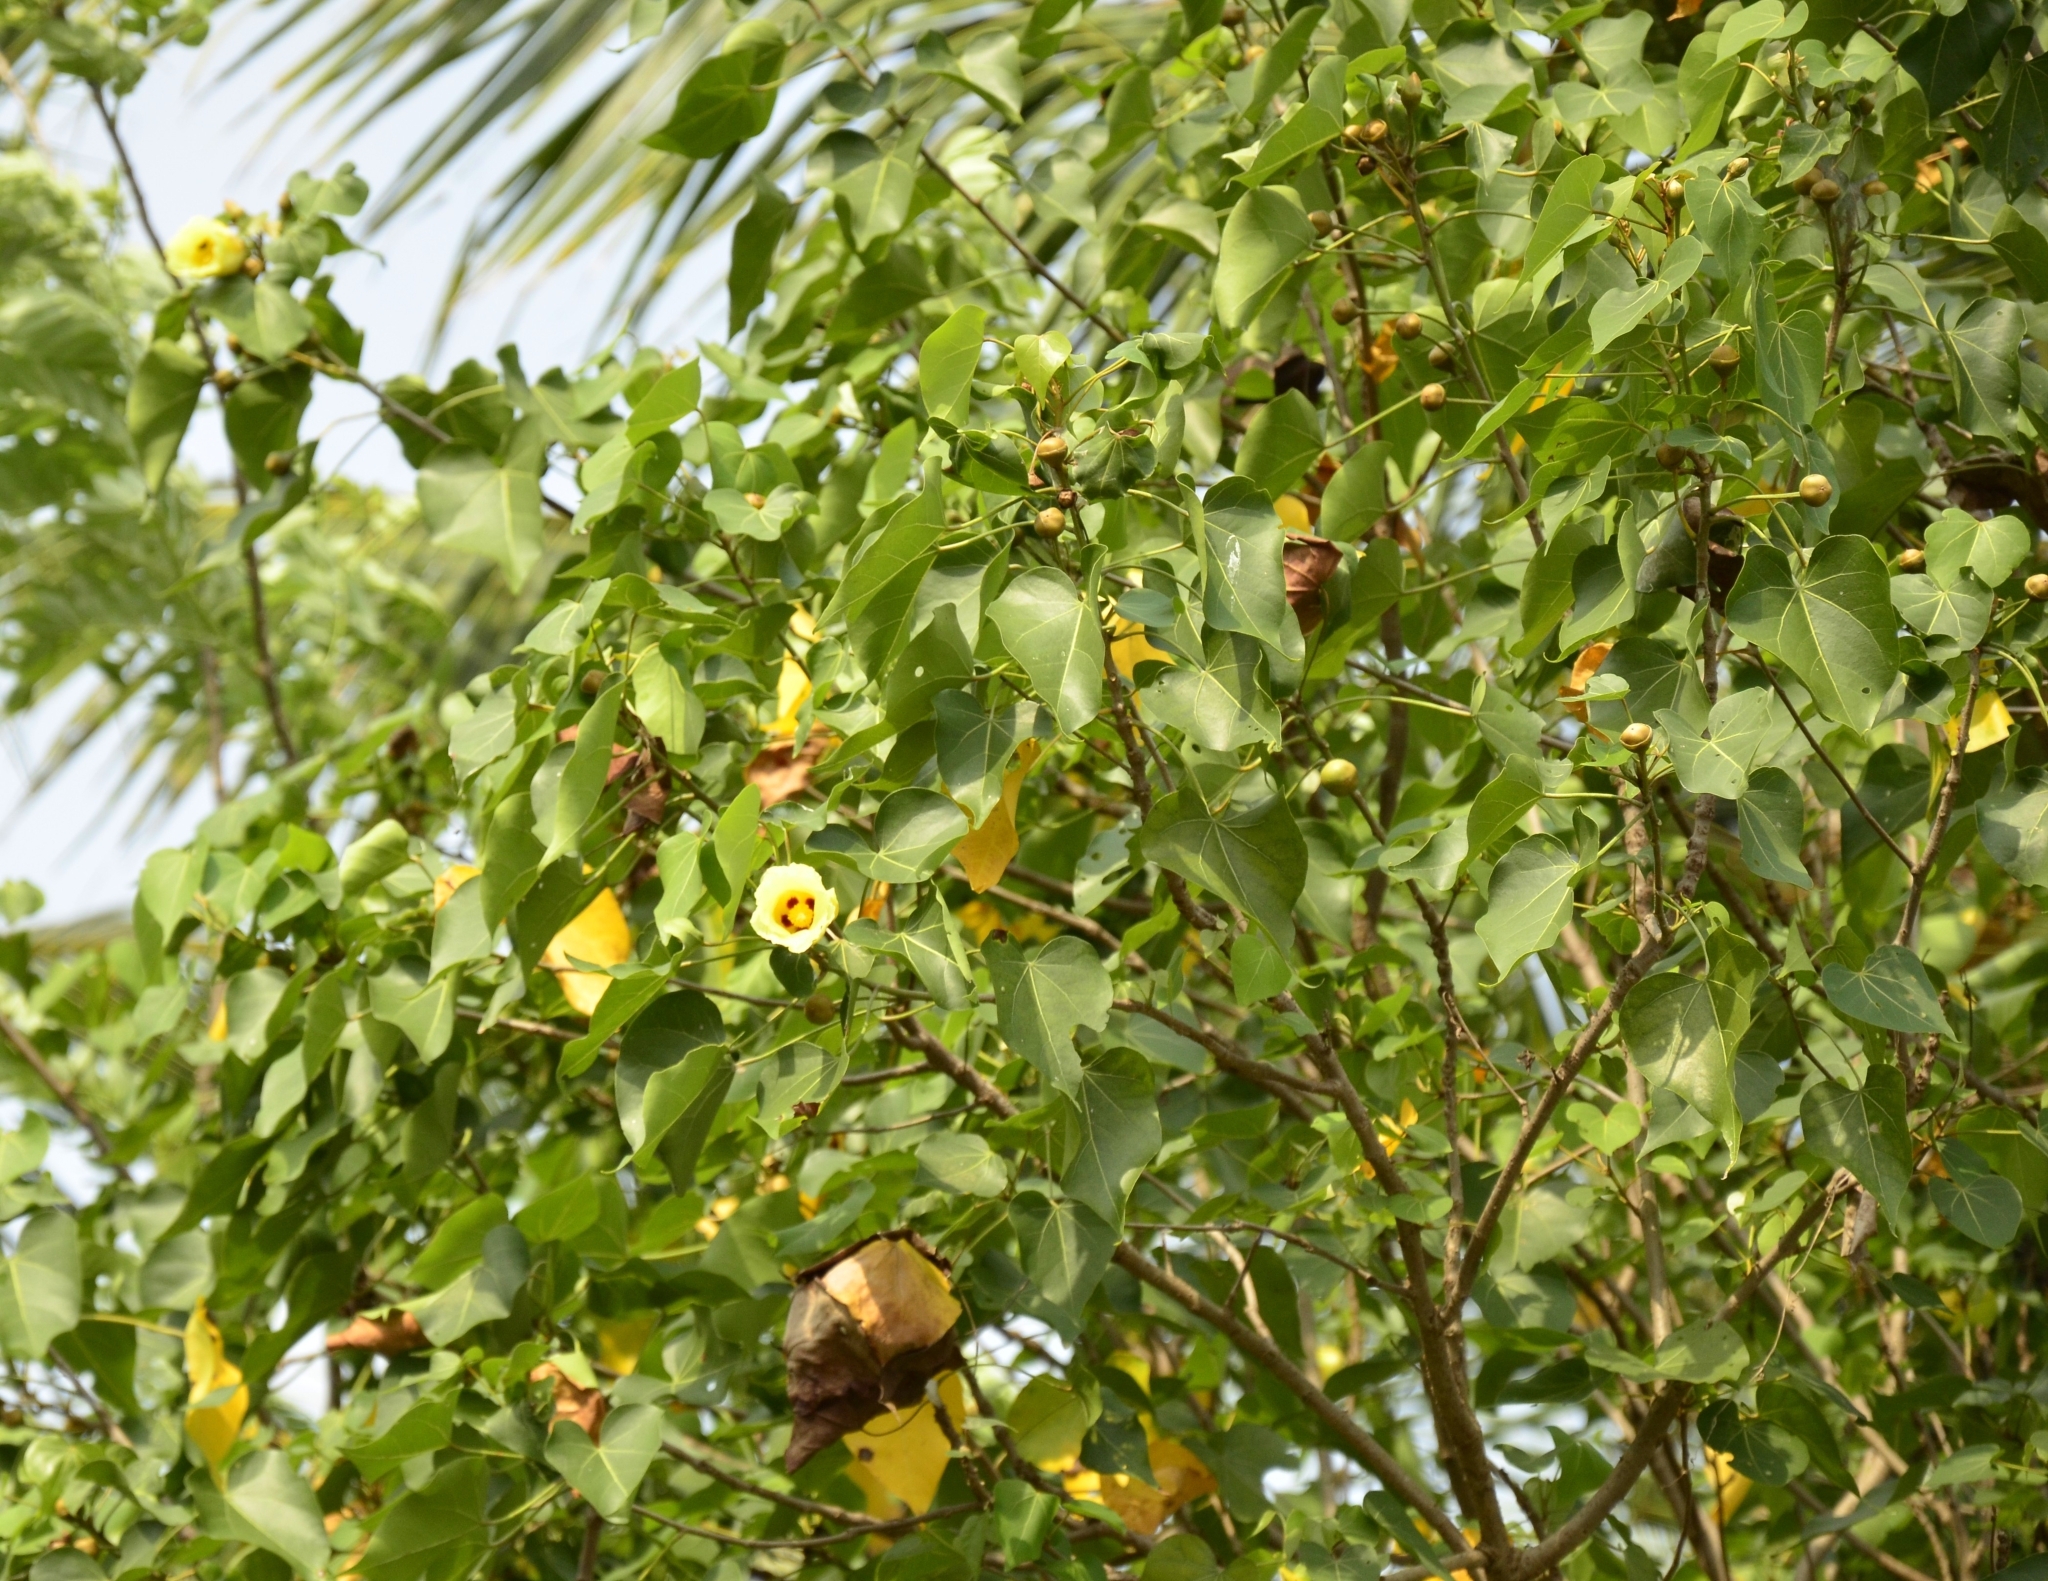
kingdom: Plantae
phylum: Tracheophyta
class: Magnoliopsida
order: Malvales
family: Malvaceae
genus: Thespesia
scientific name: Thespesia populnea
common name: Seaside mahoe
